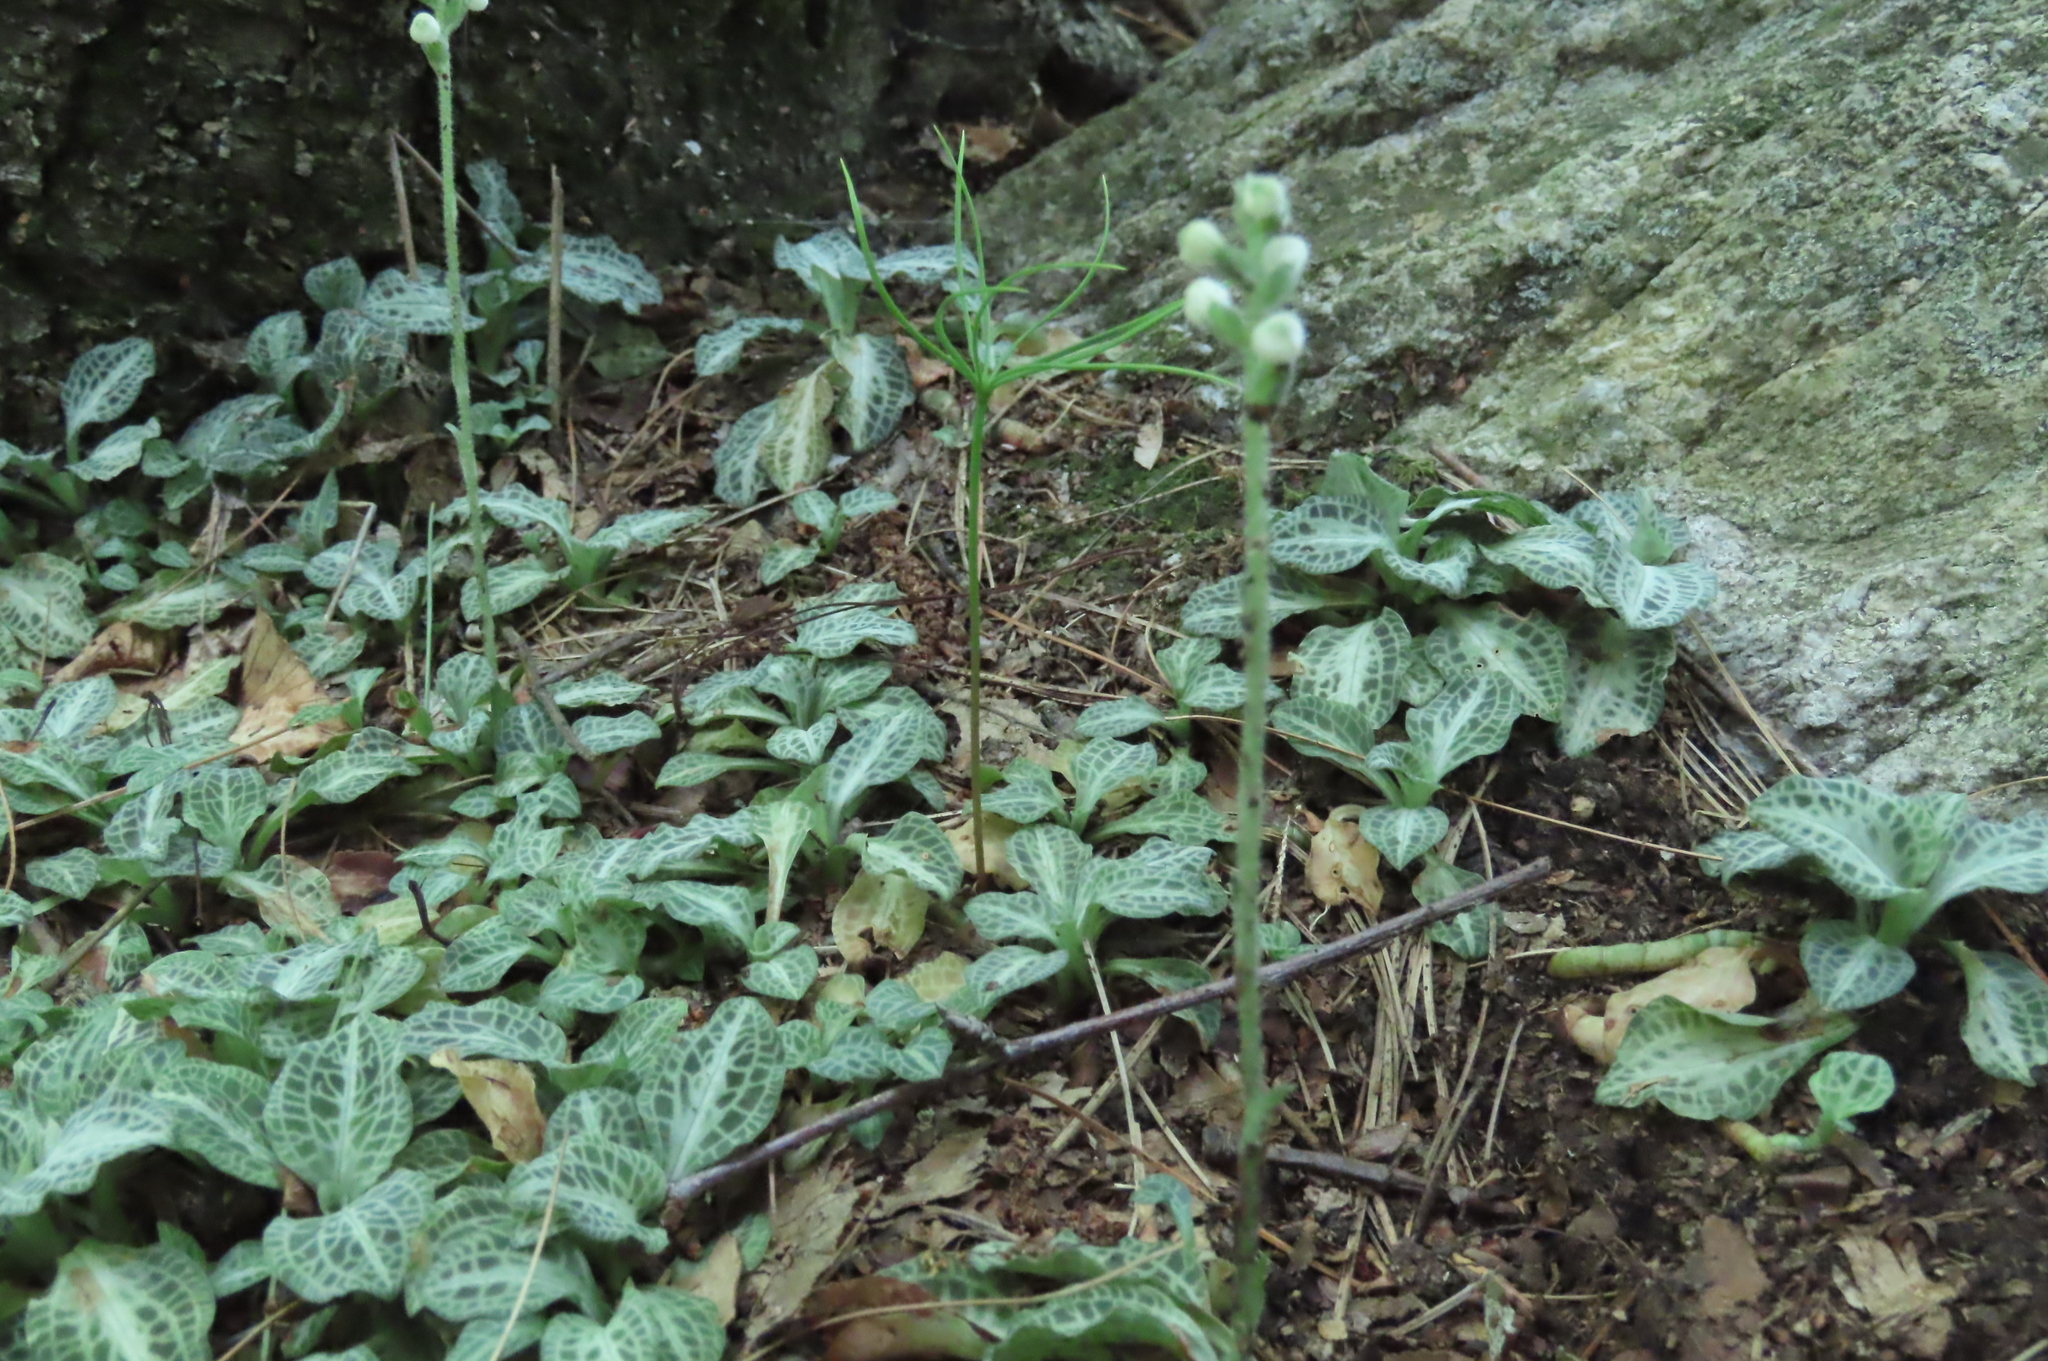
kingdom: Plantae
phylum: Tracheophyta
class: Liliopsida
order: Asparagales
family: Orchidaceae
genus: Goodyera
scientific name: Goodyera pubescens
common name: Downy rattlesnake-plantain
